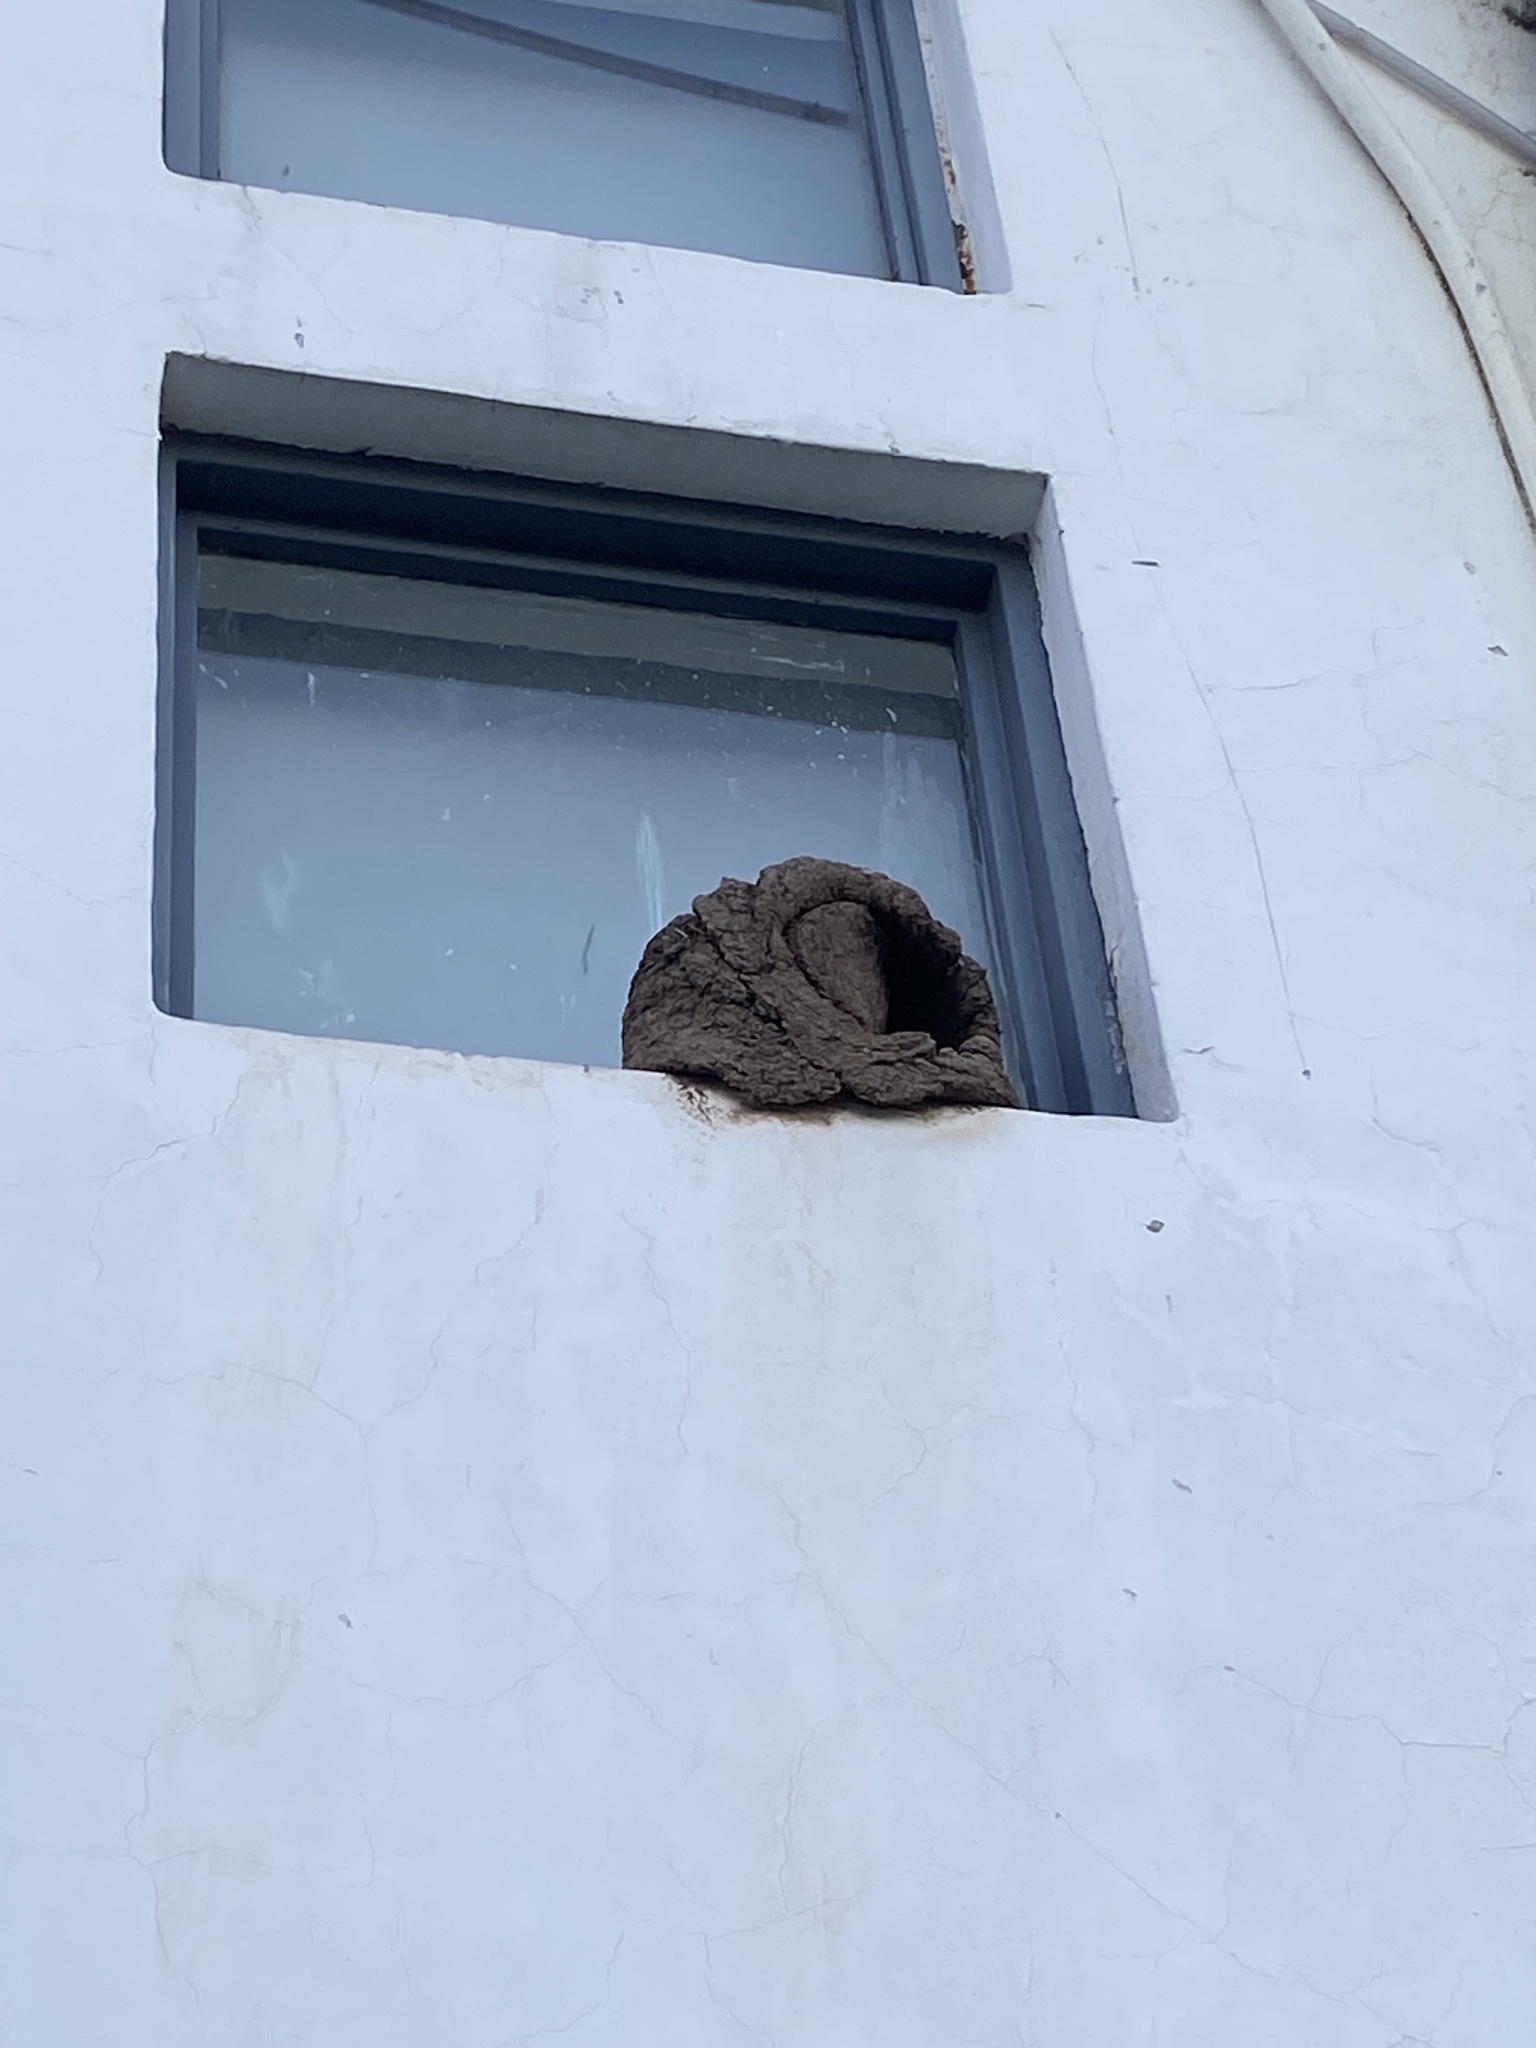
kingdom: Animalia
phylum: Chordata
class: Aves
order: Passeriformes
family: Furnariidae
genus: Furnarius
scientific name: Furnarius rufus
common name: Rufous hornero
